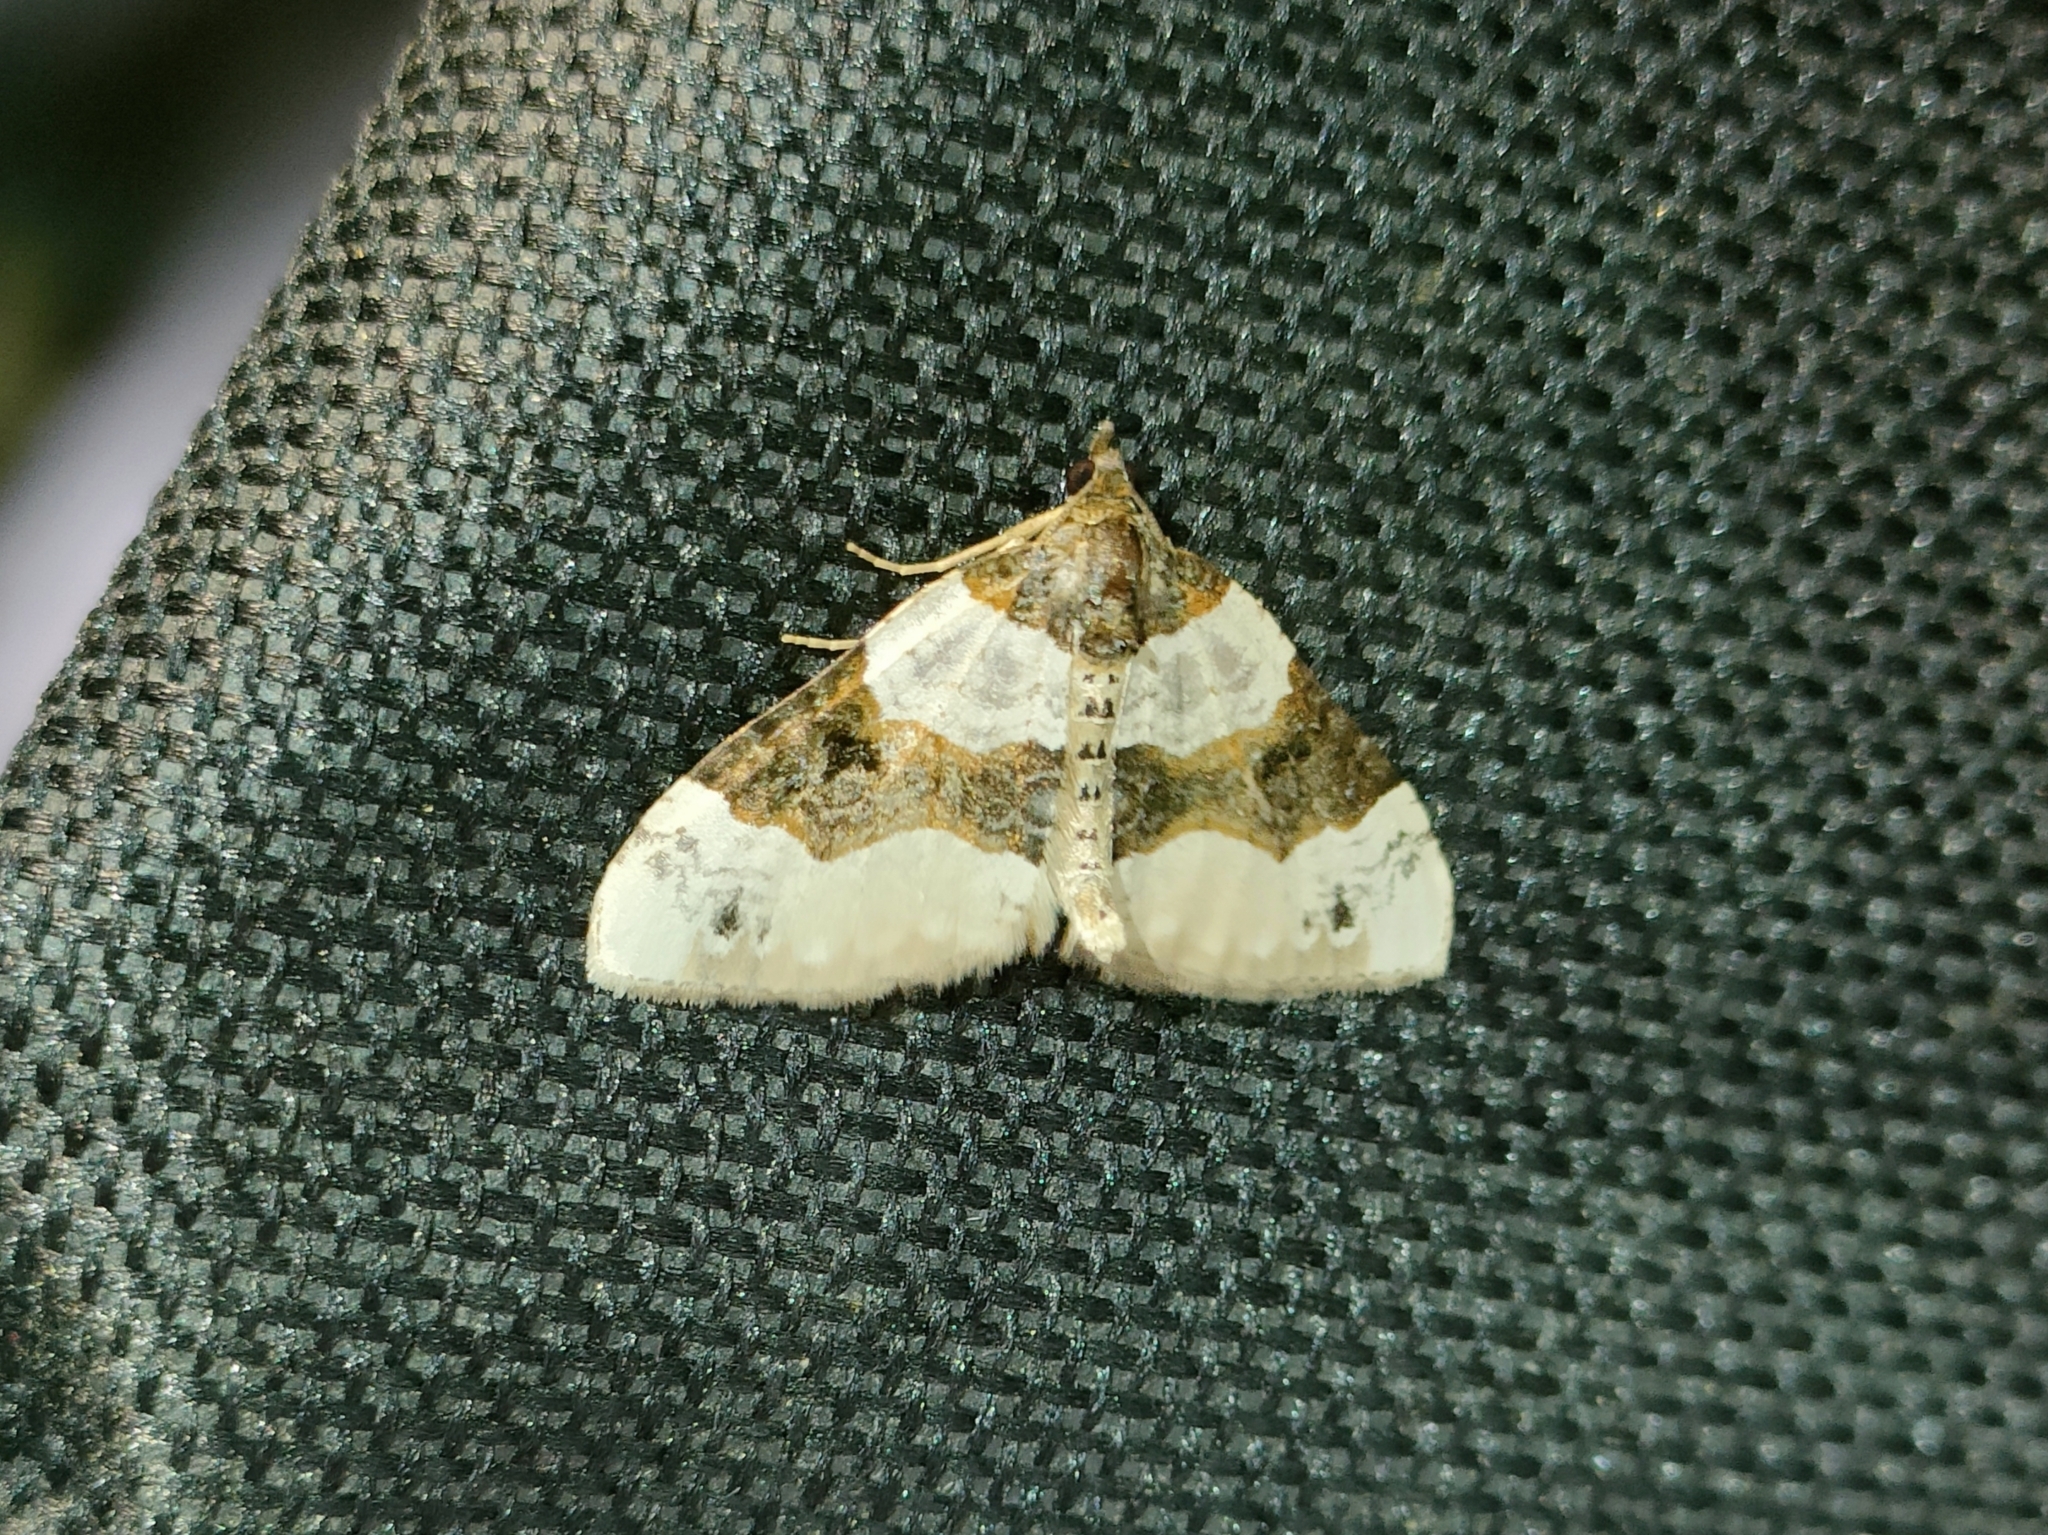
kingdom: Animalia
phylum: Arthropoda
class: Insecta
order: Lepidoptera
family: Geometridae
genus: Cosmorhoe
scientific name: Cosmorhoe ocellata
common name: Purple bar
